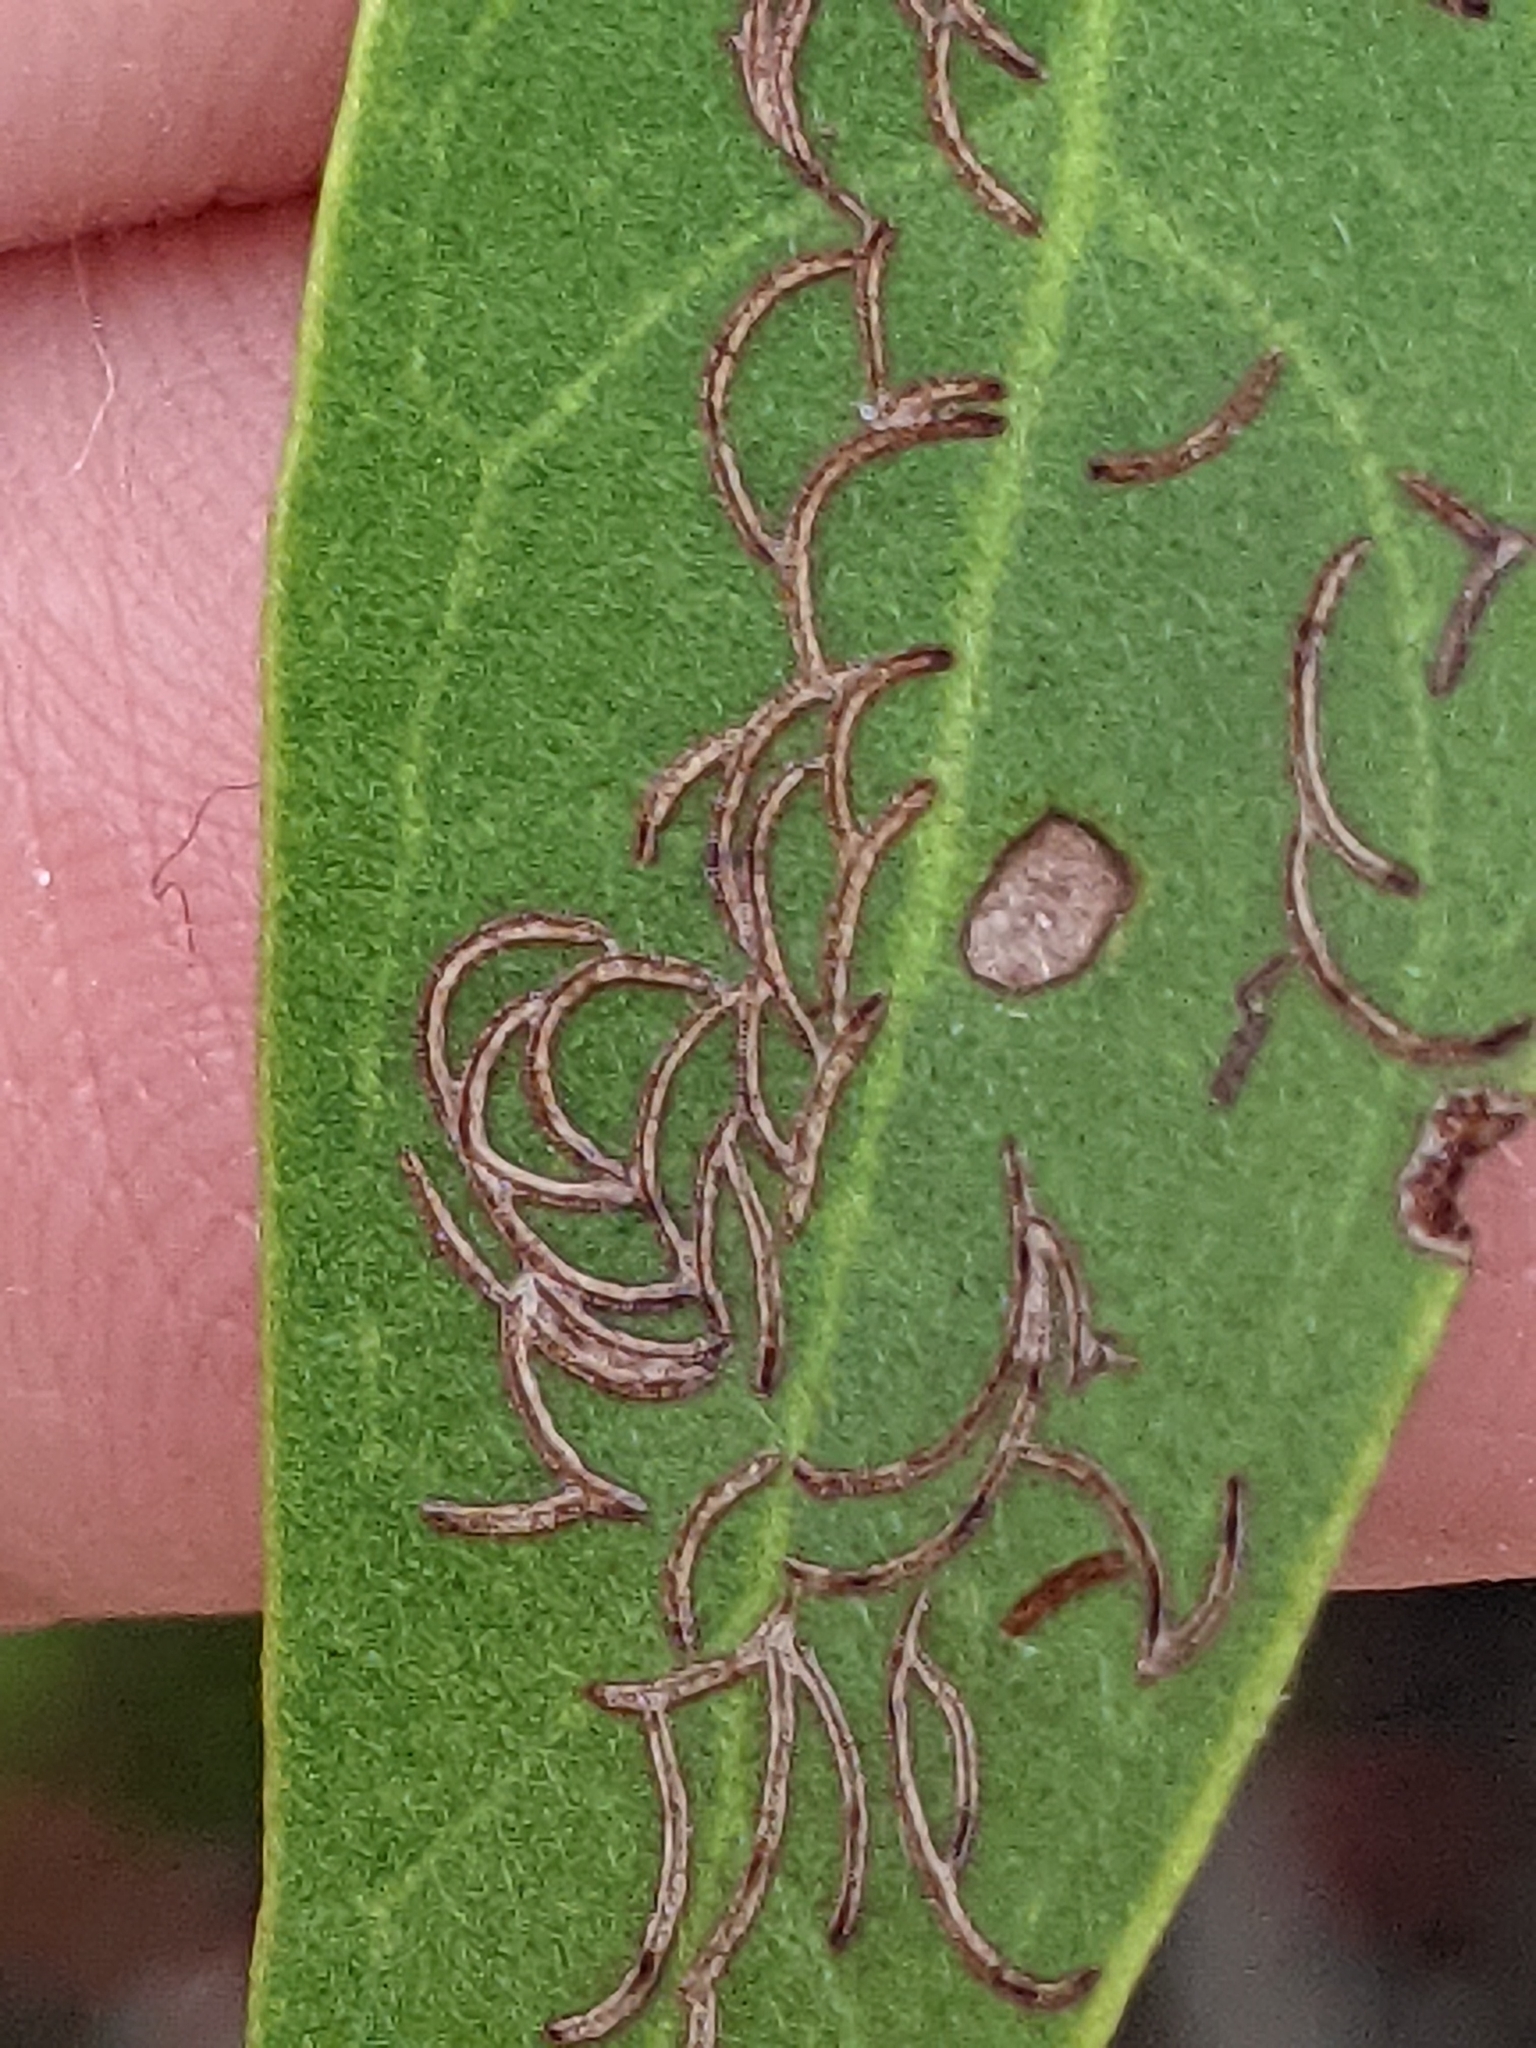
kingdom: Plantae
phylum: Tracheophyta
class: Magnoliopsida
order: Myrtales
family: Combretaceae
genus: Conocarpus
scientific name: Conocarpus erectus
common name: Button mangrove
